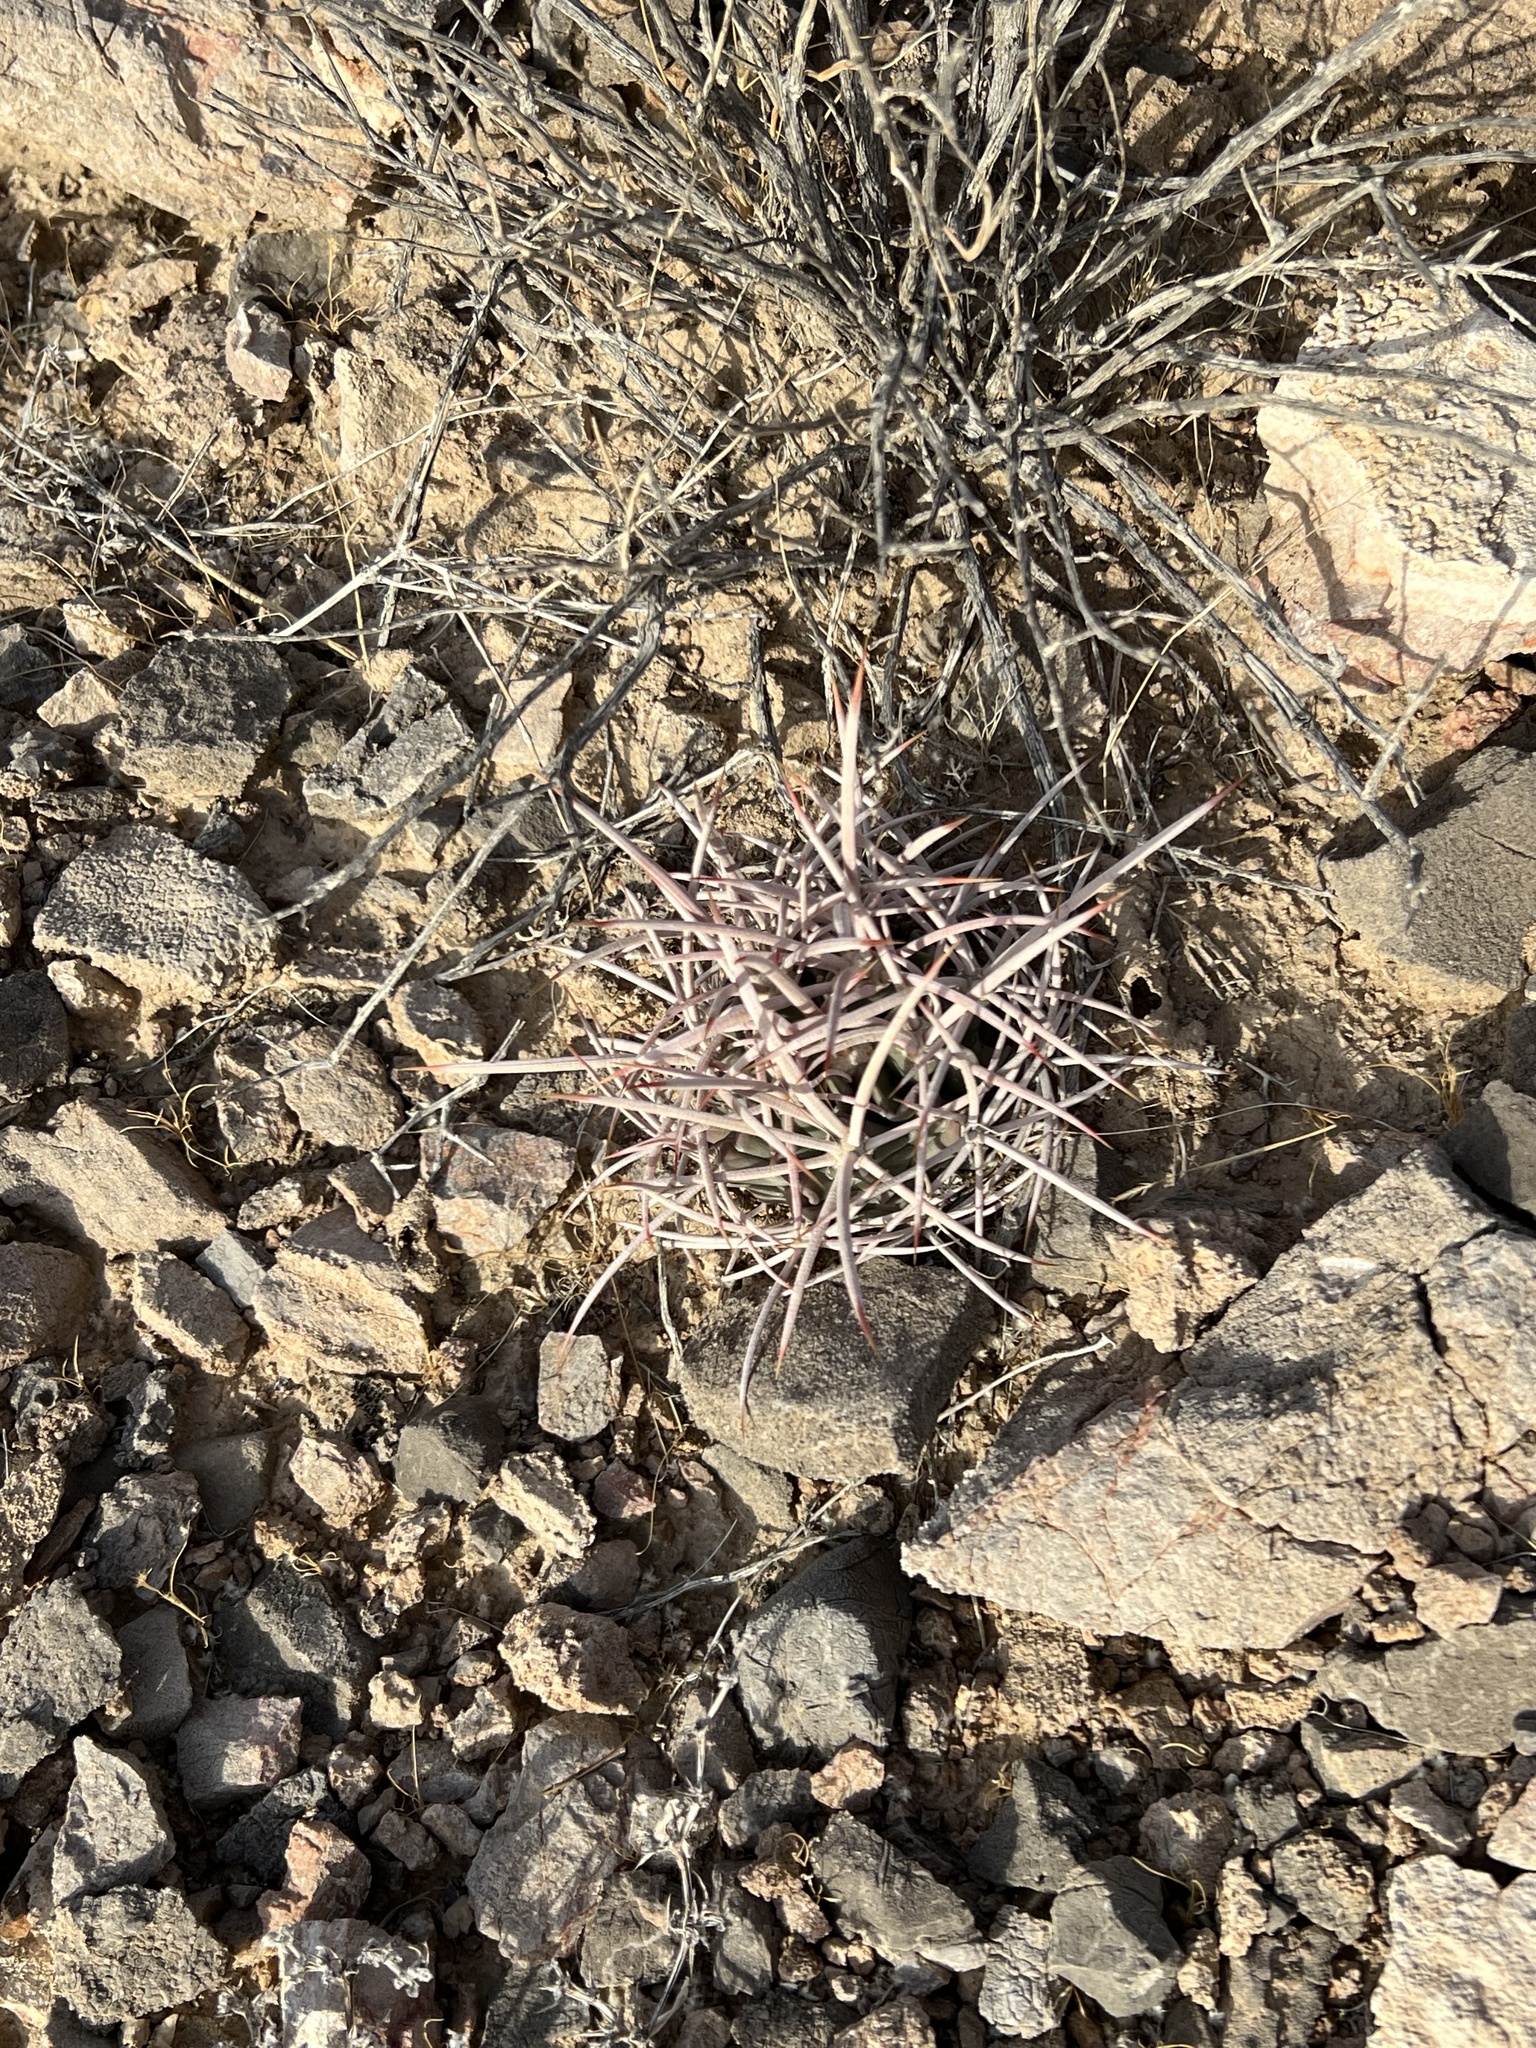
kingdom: Plantae
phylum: Tracheophyta
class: Magnoliopsida
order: Caryophyllales
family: Cactaceae
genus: Echinocactus
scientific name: Echinocactus polycephalus
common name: Cottontop cactus
